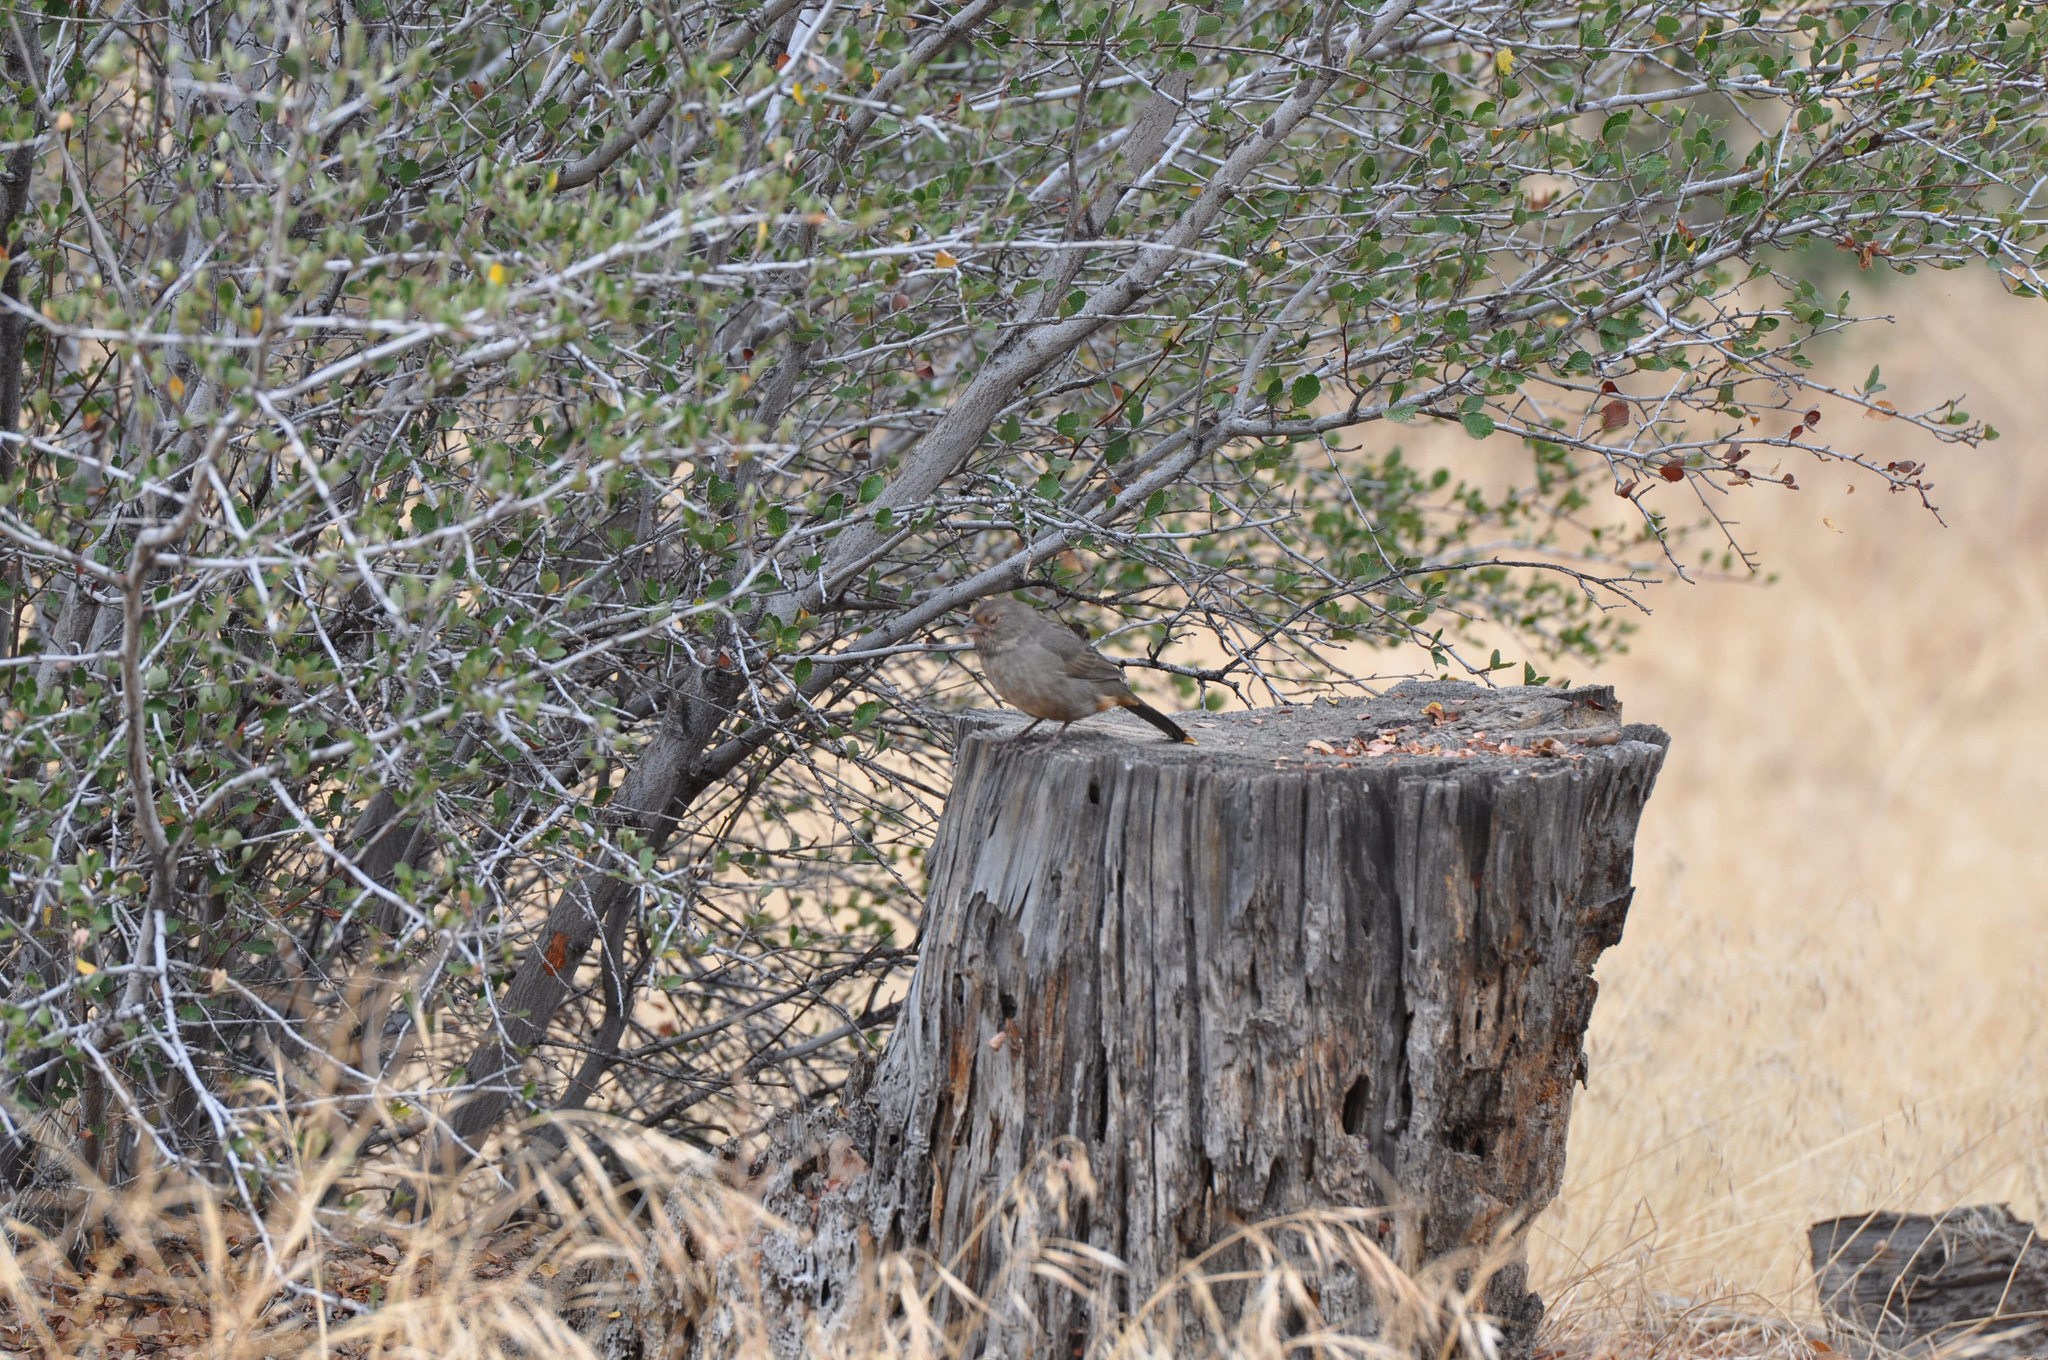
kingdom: Animalia
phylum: Chordata
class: Aves
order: Passeriformes
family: Passerellidae
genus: Melozone
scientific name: Melozone crissalis
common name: California towhee
